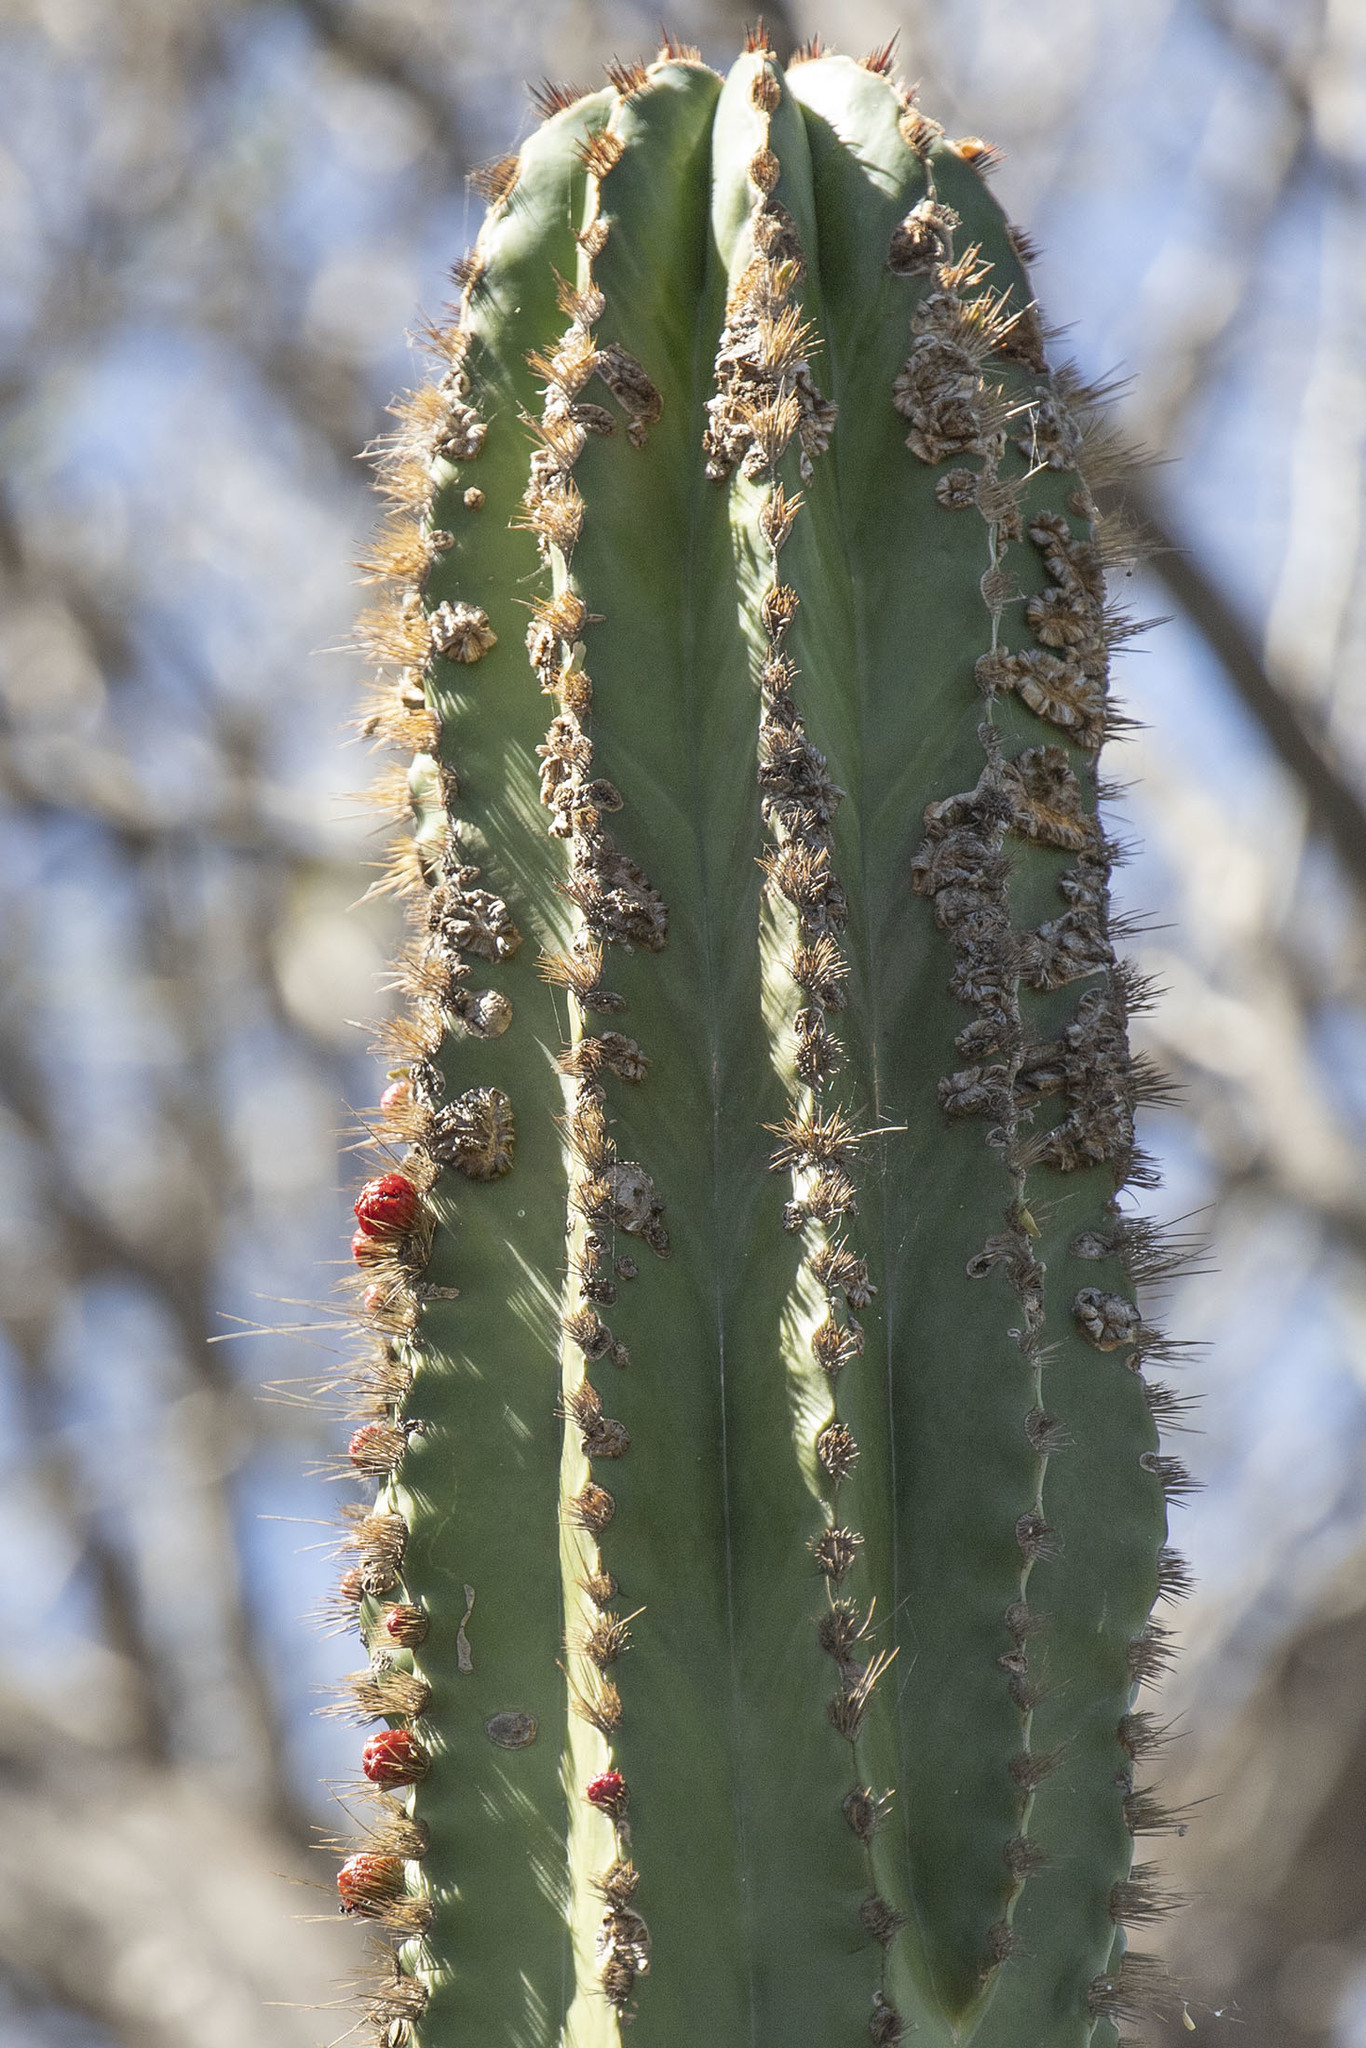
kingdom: Plantae
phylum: Tracheophyta
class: Magnoliopsida
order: Caryophyllales
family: Cactaceae
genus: Pachycereus
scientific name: Pachycereus pecten-aboriginum
